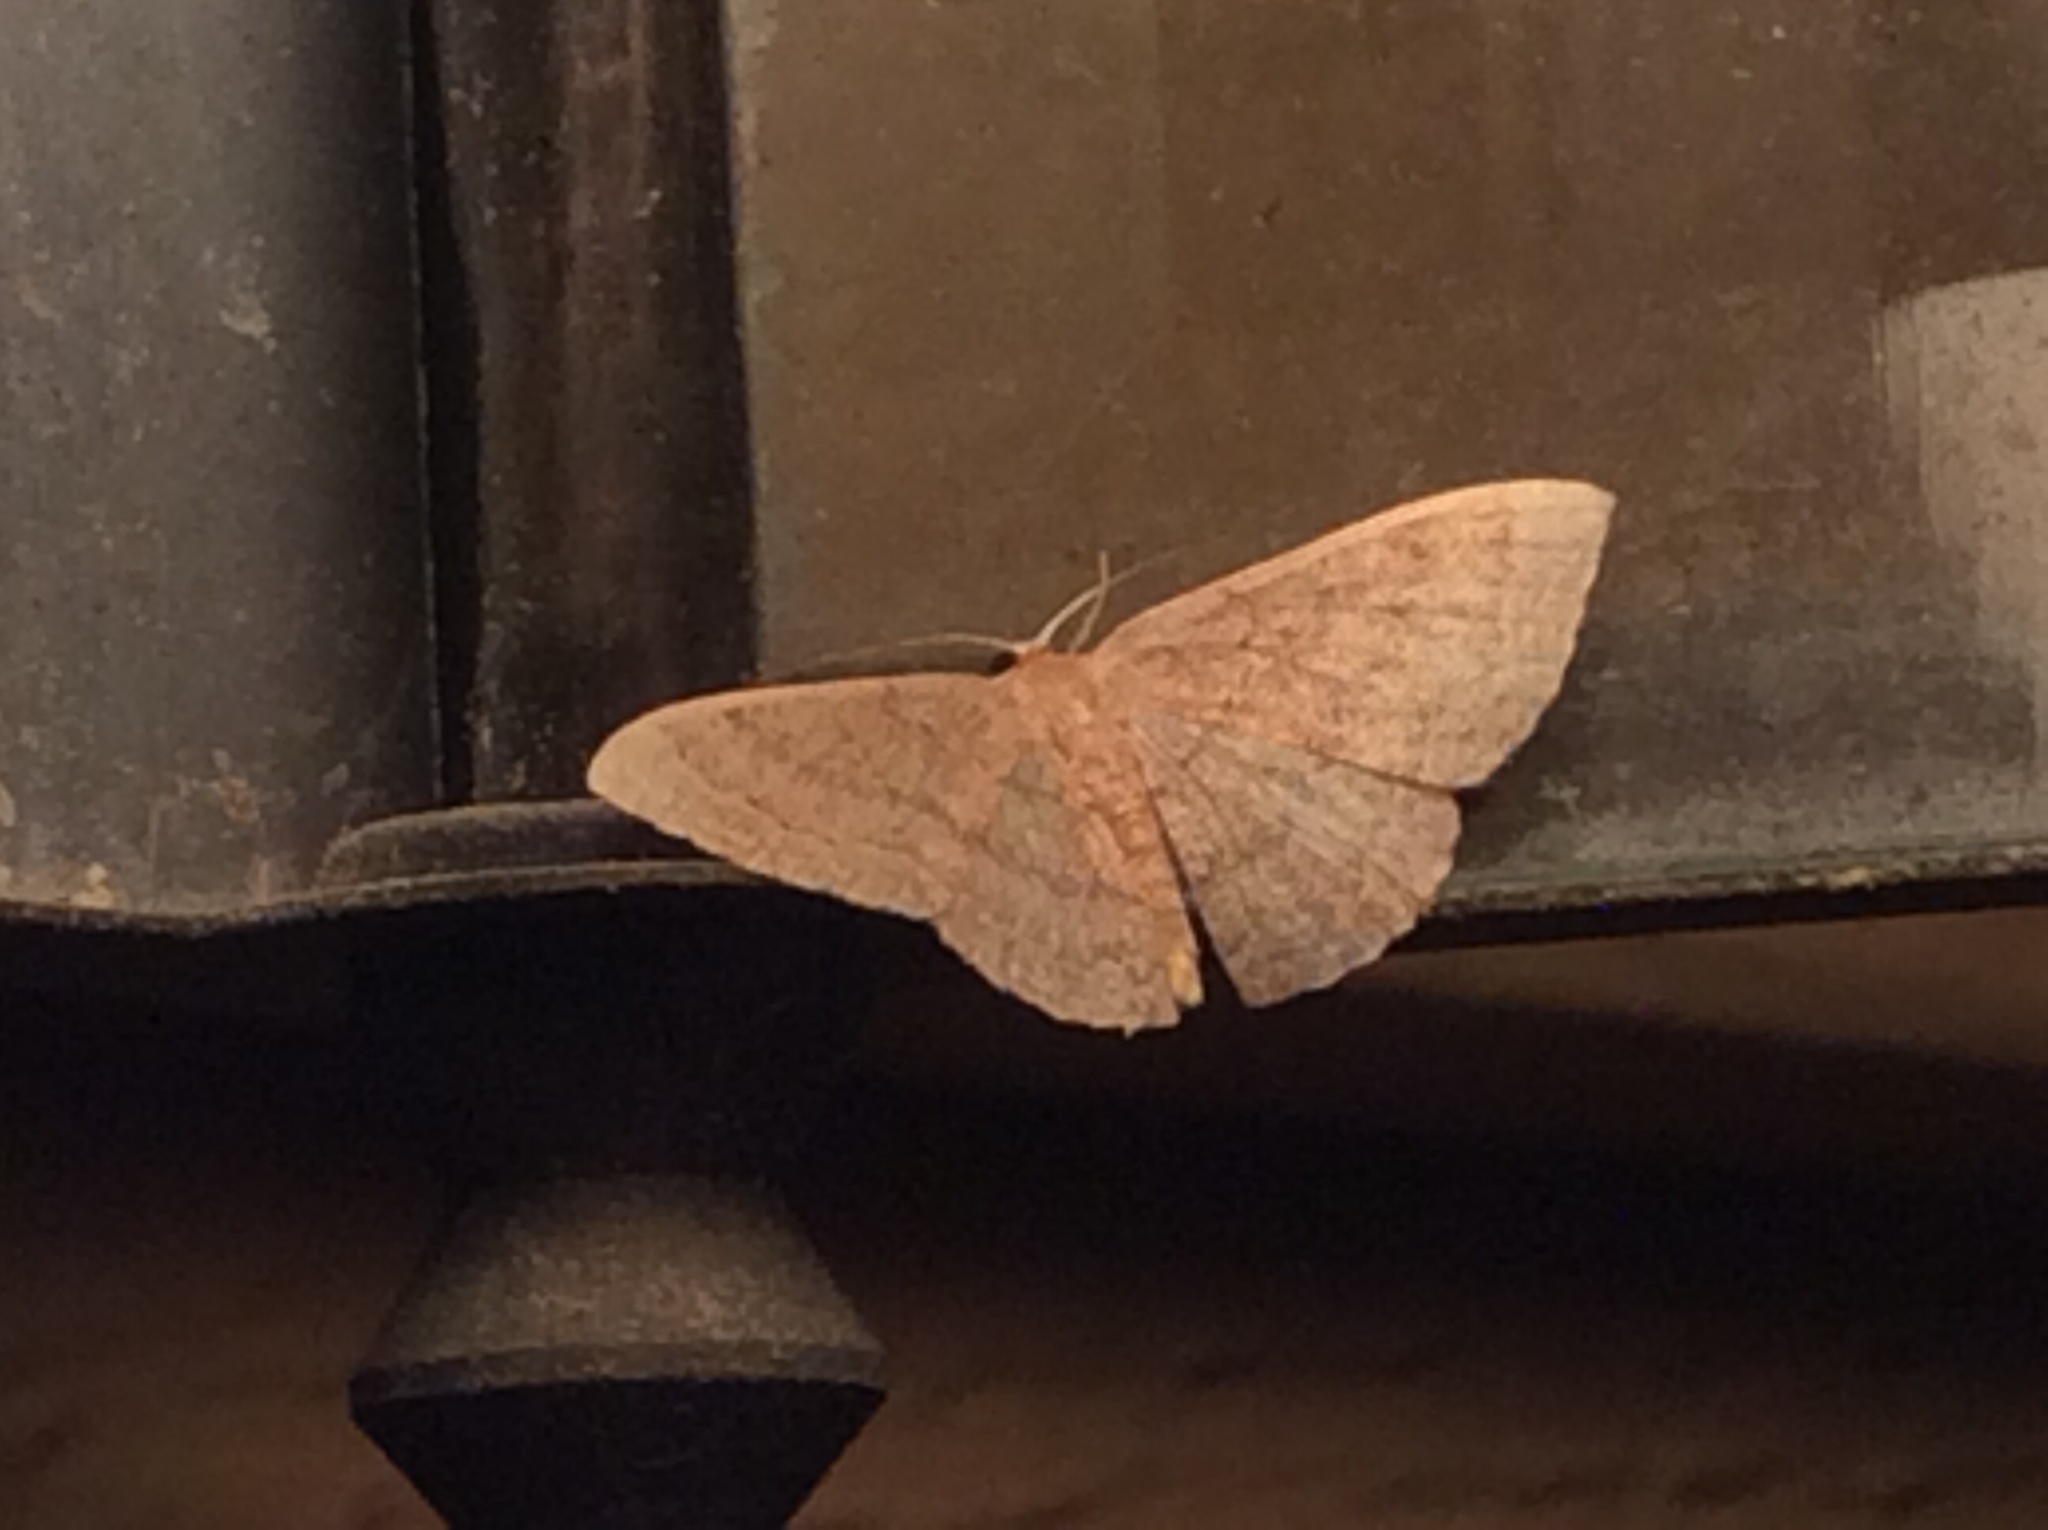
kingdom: Animalia
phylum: Arthropoda
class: Insecta
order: Lepidoptera
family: Geometridae
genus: Pleuroprucha
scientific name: Pleuroprucha insulsaria
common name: Common tan wave
